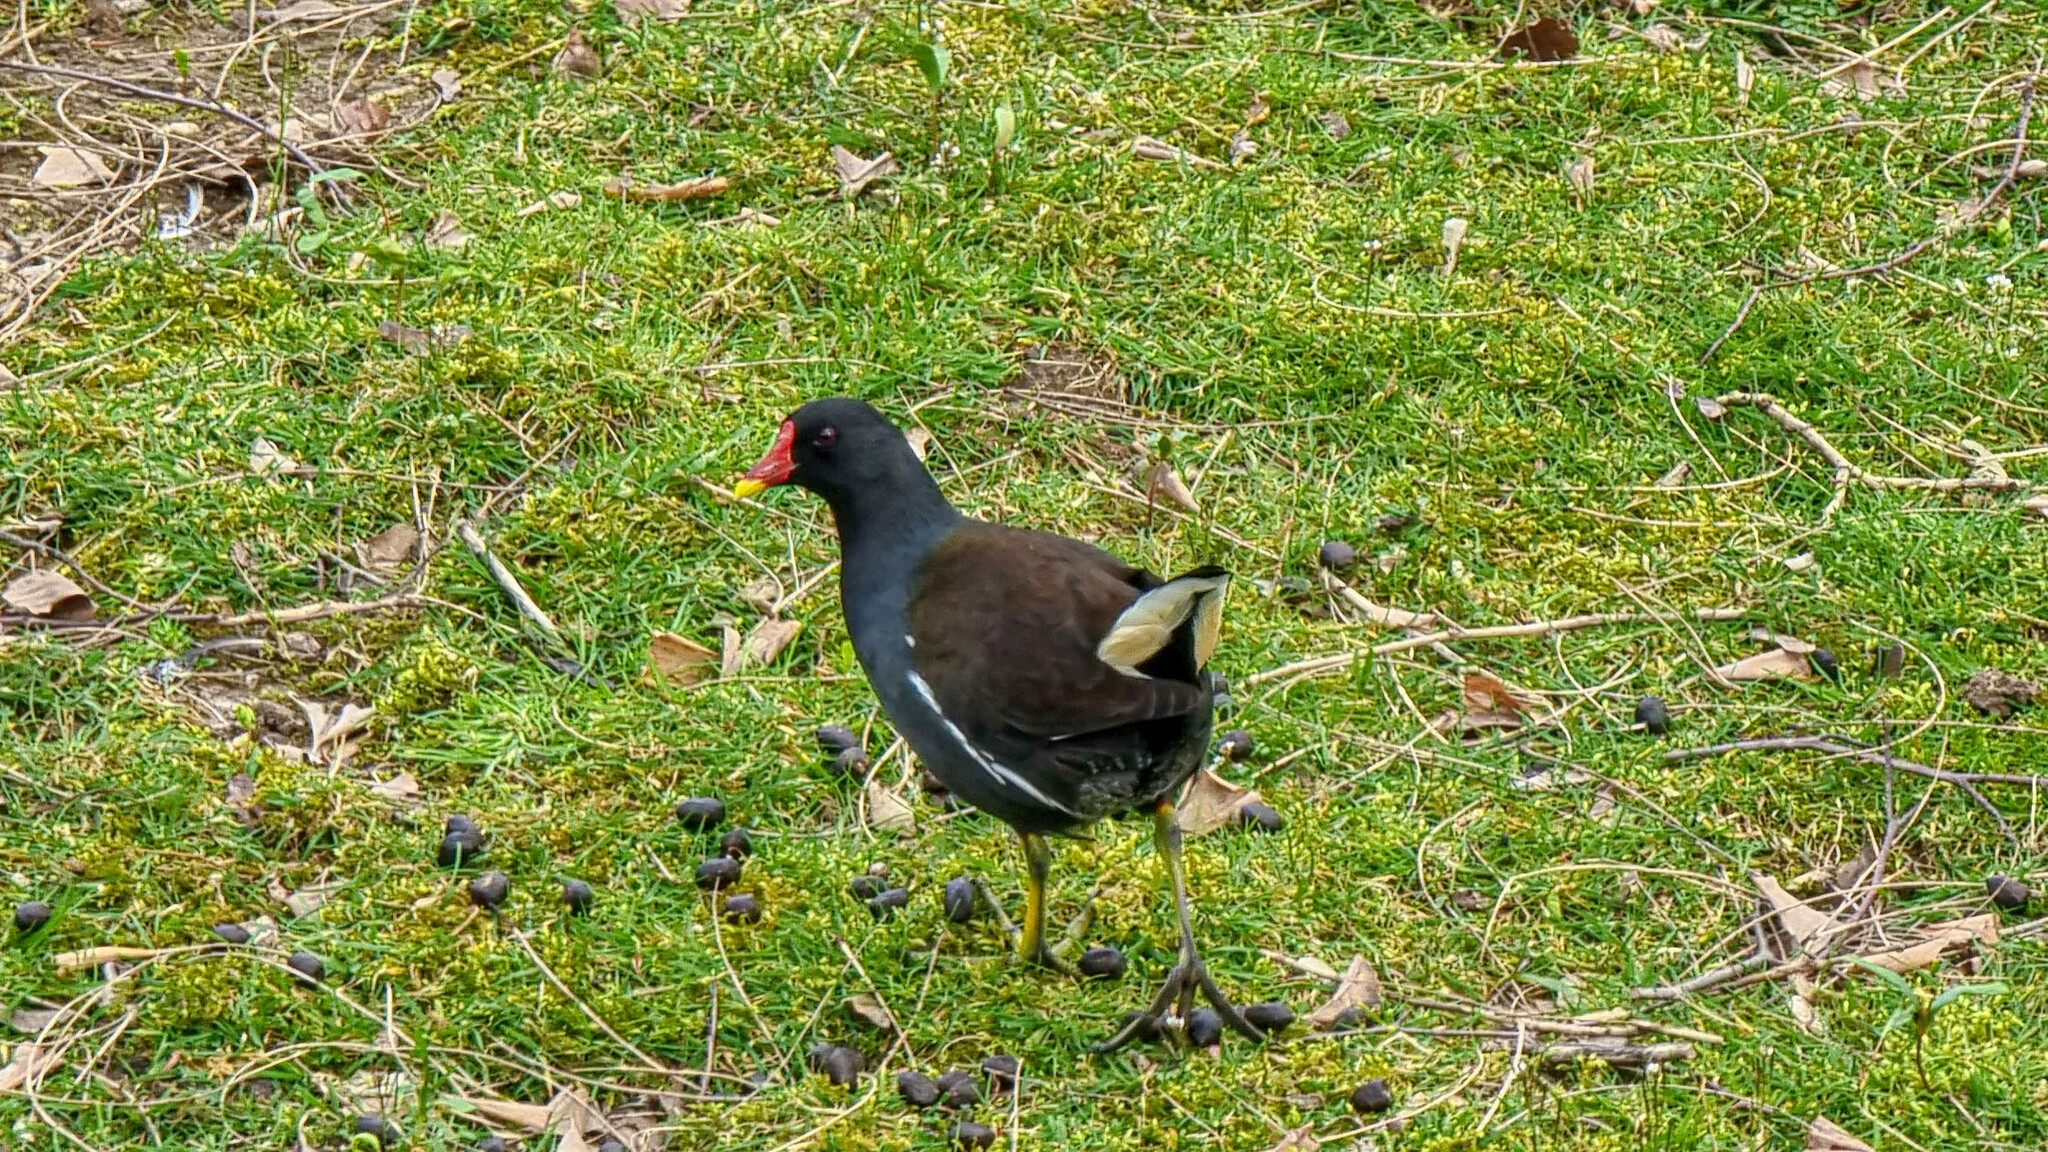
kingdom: Animalia
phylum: Chordata
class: Aves
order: Gruiformes
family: Rallidae
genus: Gallinula
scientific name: Gallinula chloropus
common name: Common moorhen
